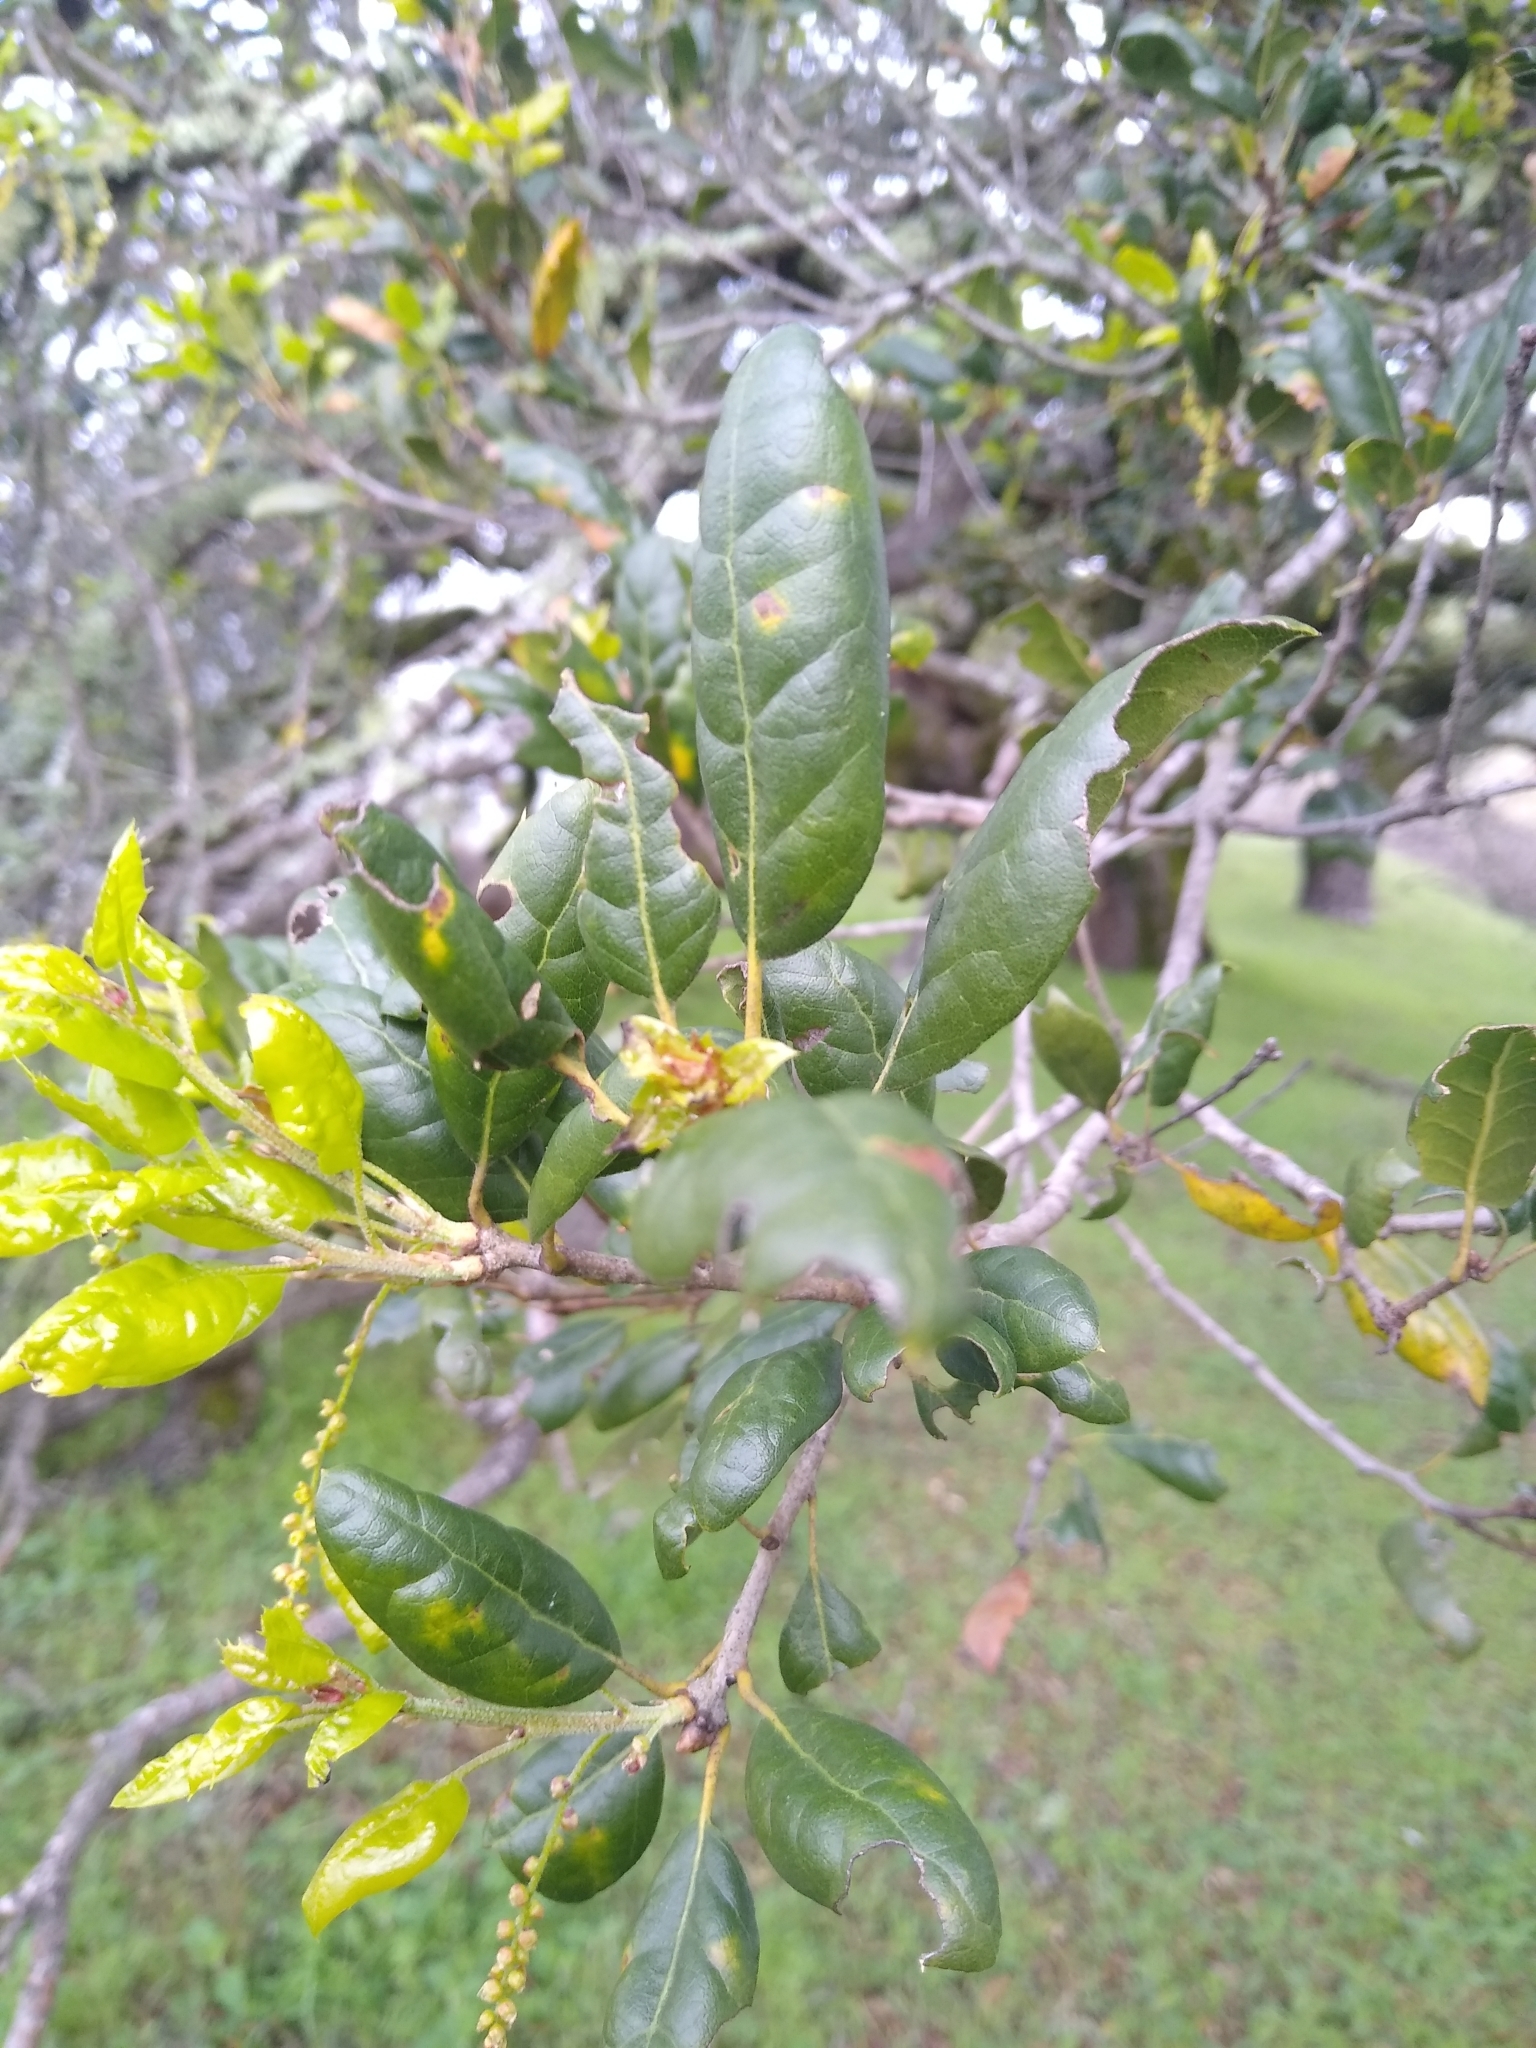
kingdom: Plantae
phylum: Tracheophyta
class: Magnoliopsida
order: Fagales
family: Fagaceae
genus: Quercus
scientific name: Quercus agrifolia
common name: California live oak
